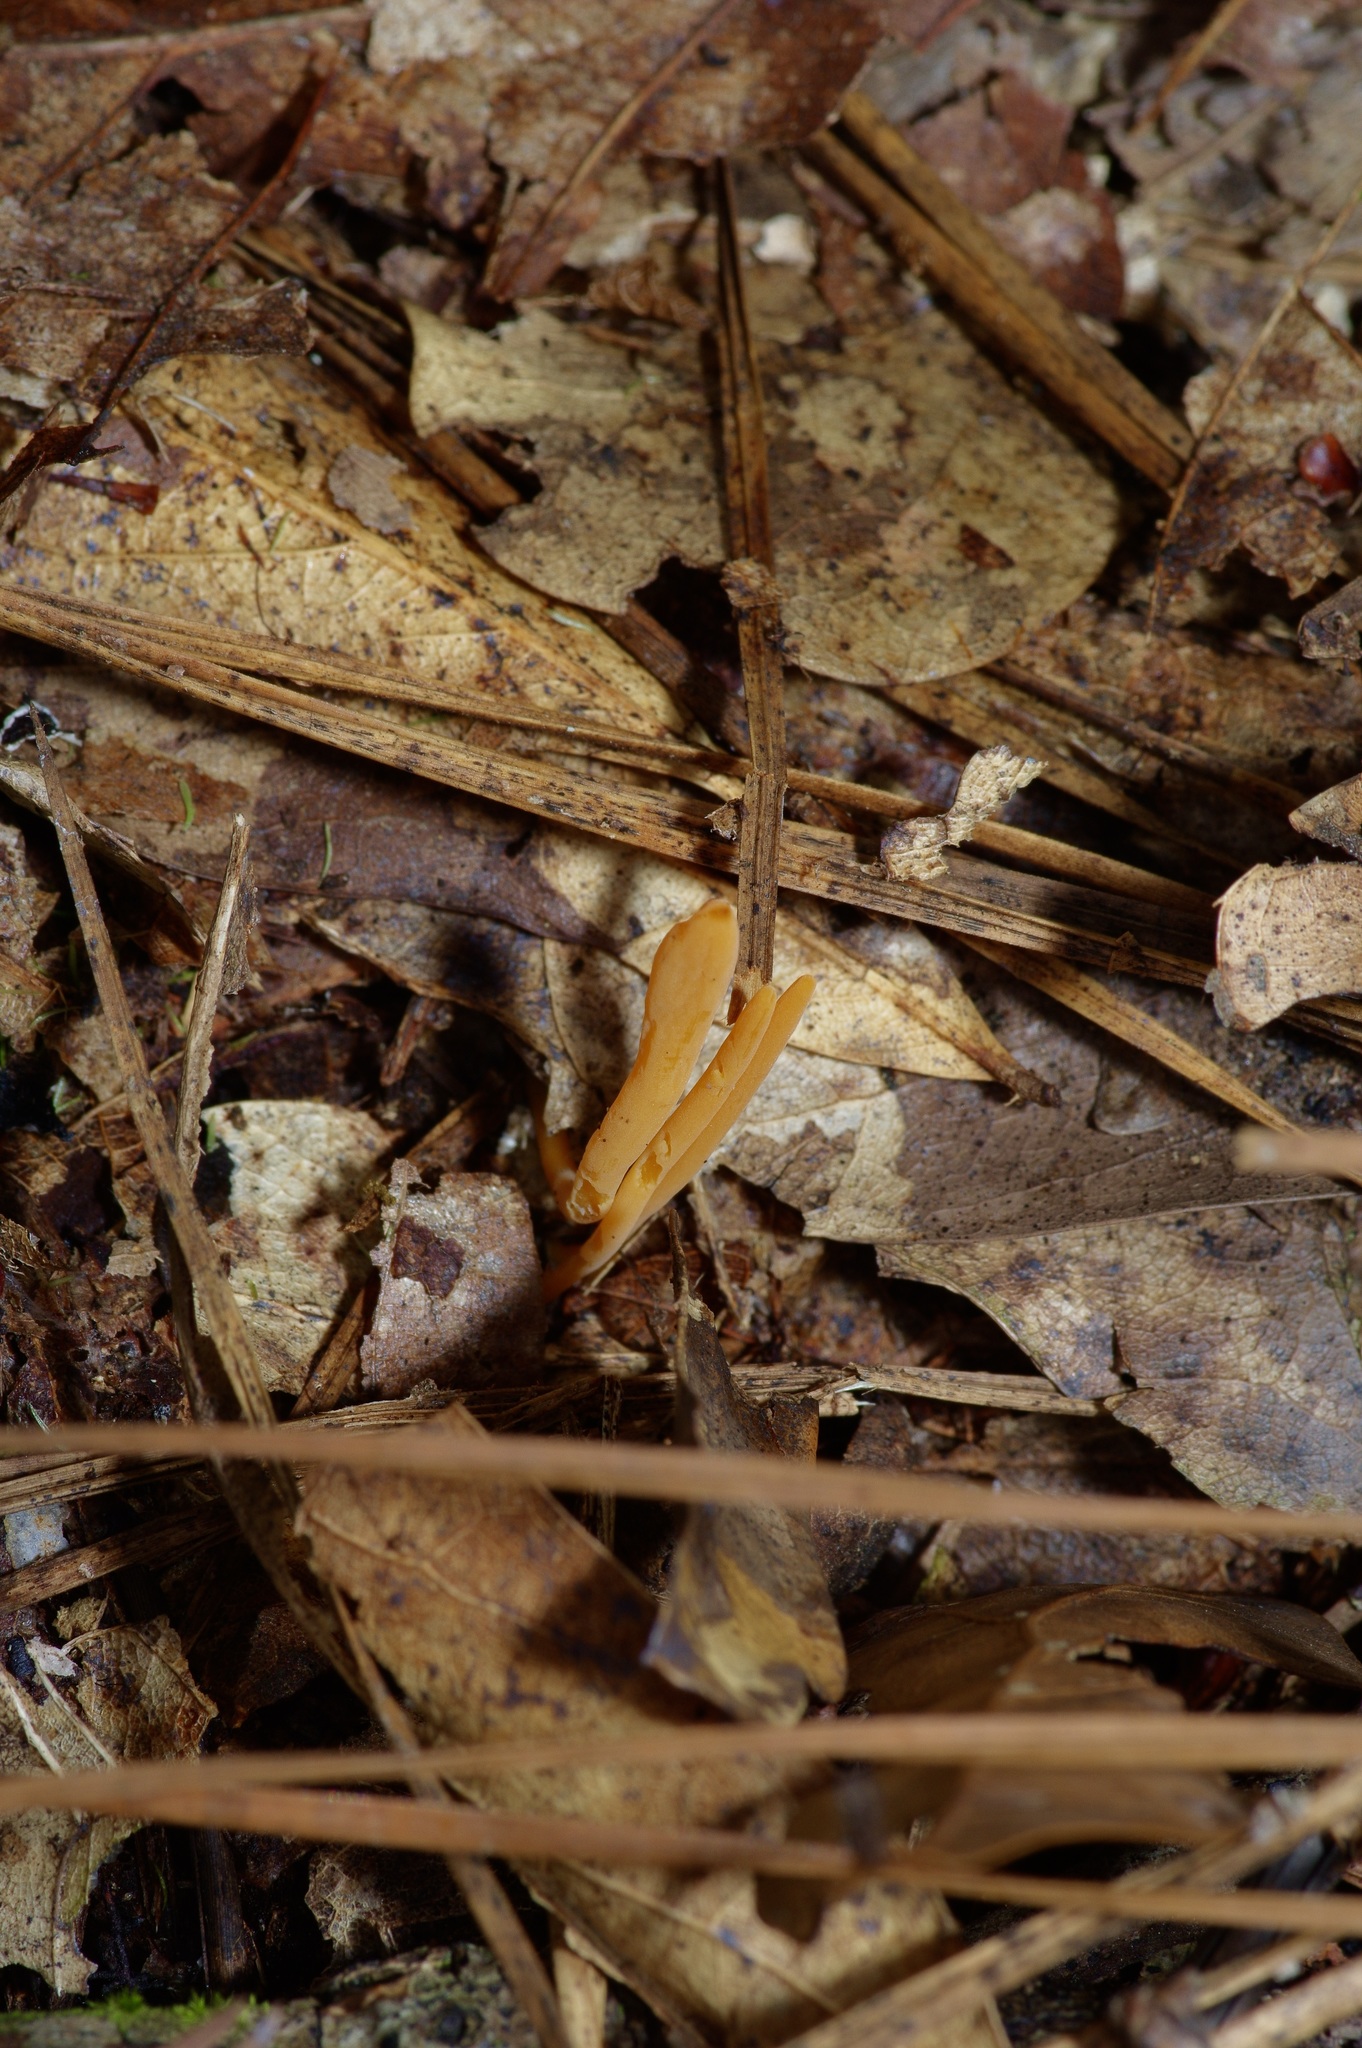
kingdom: Fungi
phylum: Basidiomycota
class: Agaricomycetes
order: Agaricales
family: Clavariaceae
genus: Clavulinopsis
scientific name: Clavulinopsis aurantiocinnabarina
